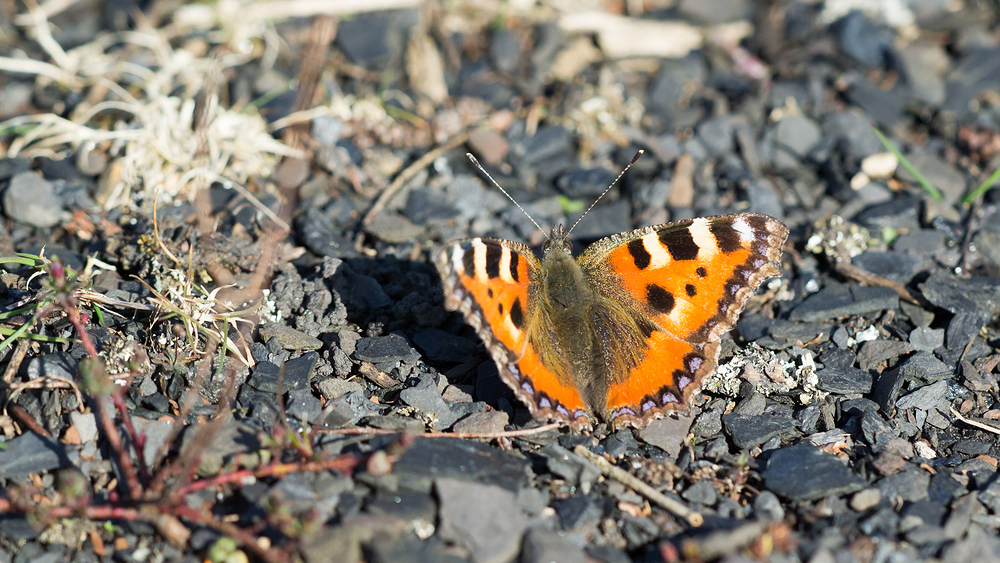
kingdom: Animalia
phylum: Arthropoda
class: Insecta
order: Lepidoptera
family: Nymphalidae
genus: Aglais
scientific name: Aglais urticae
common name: Small tortoiseshell
